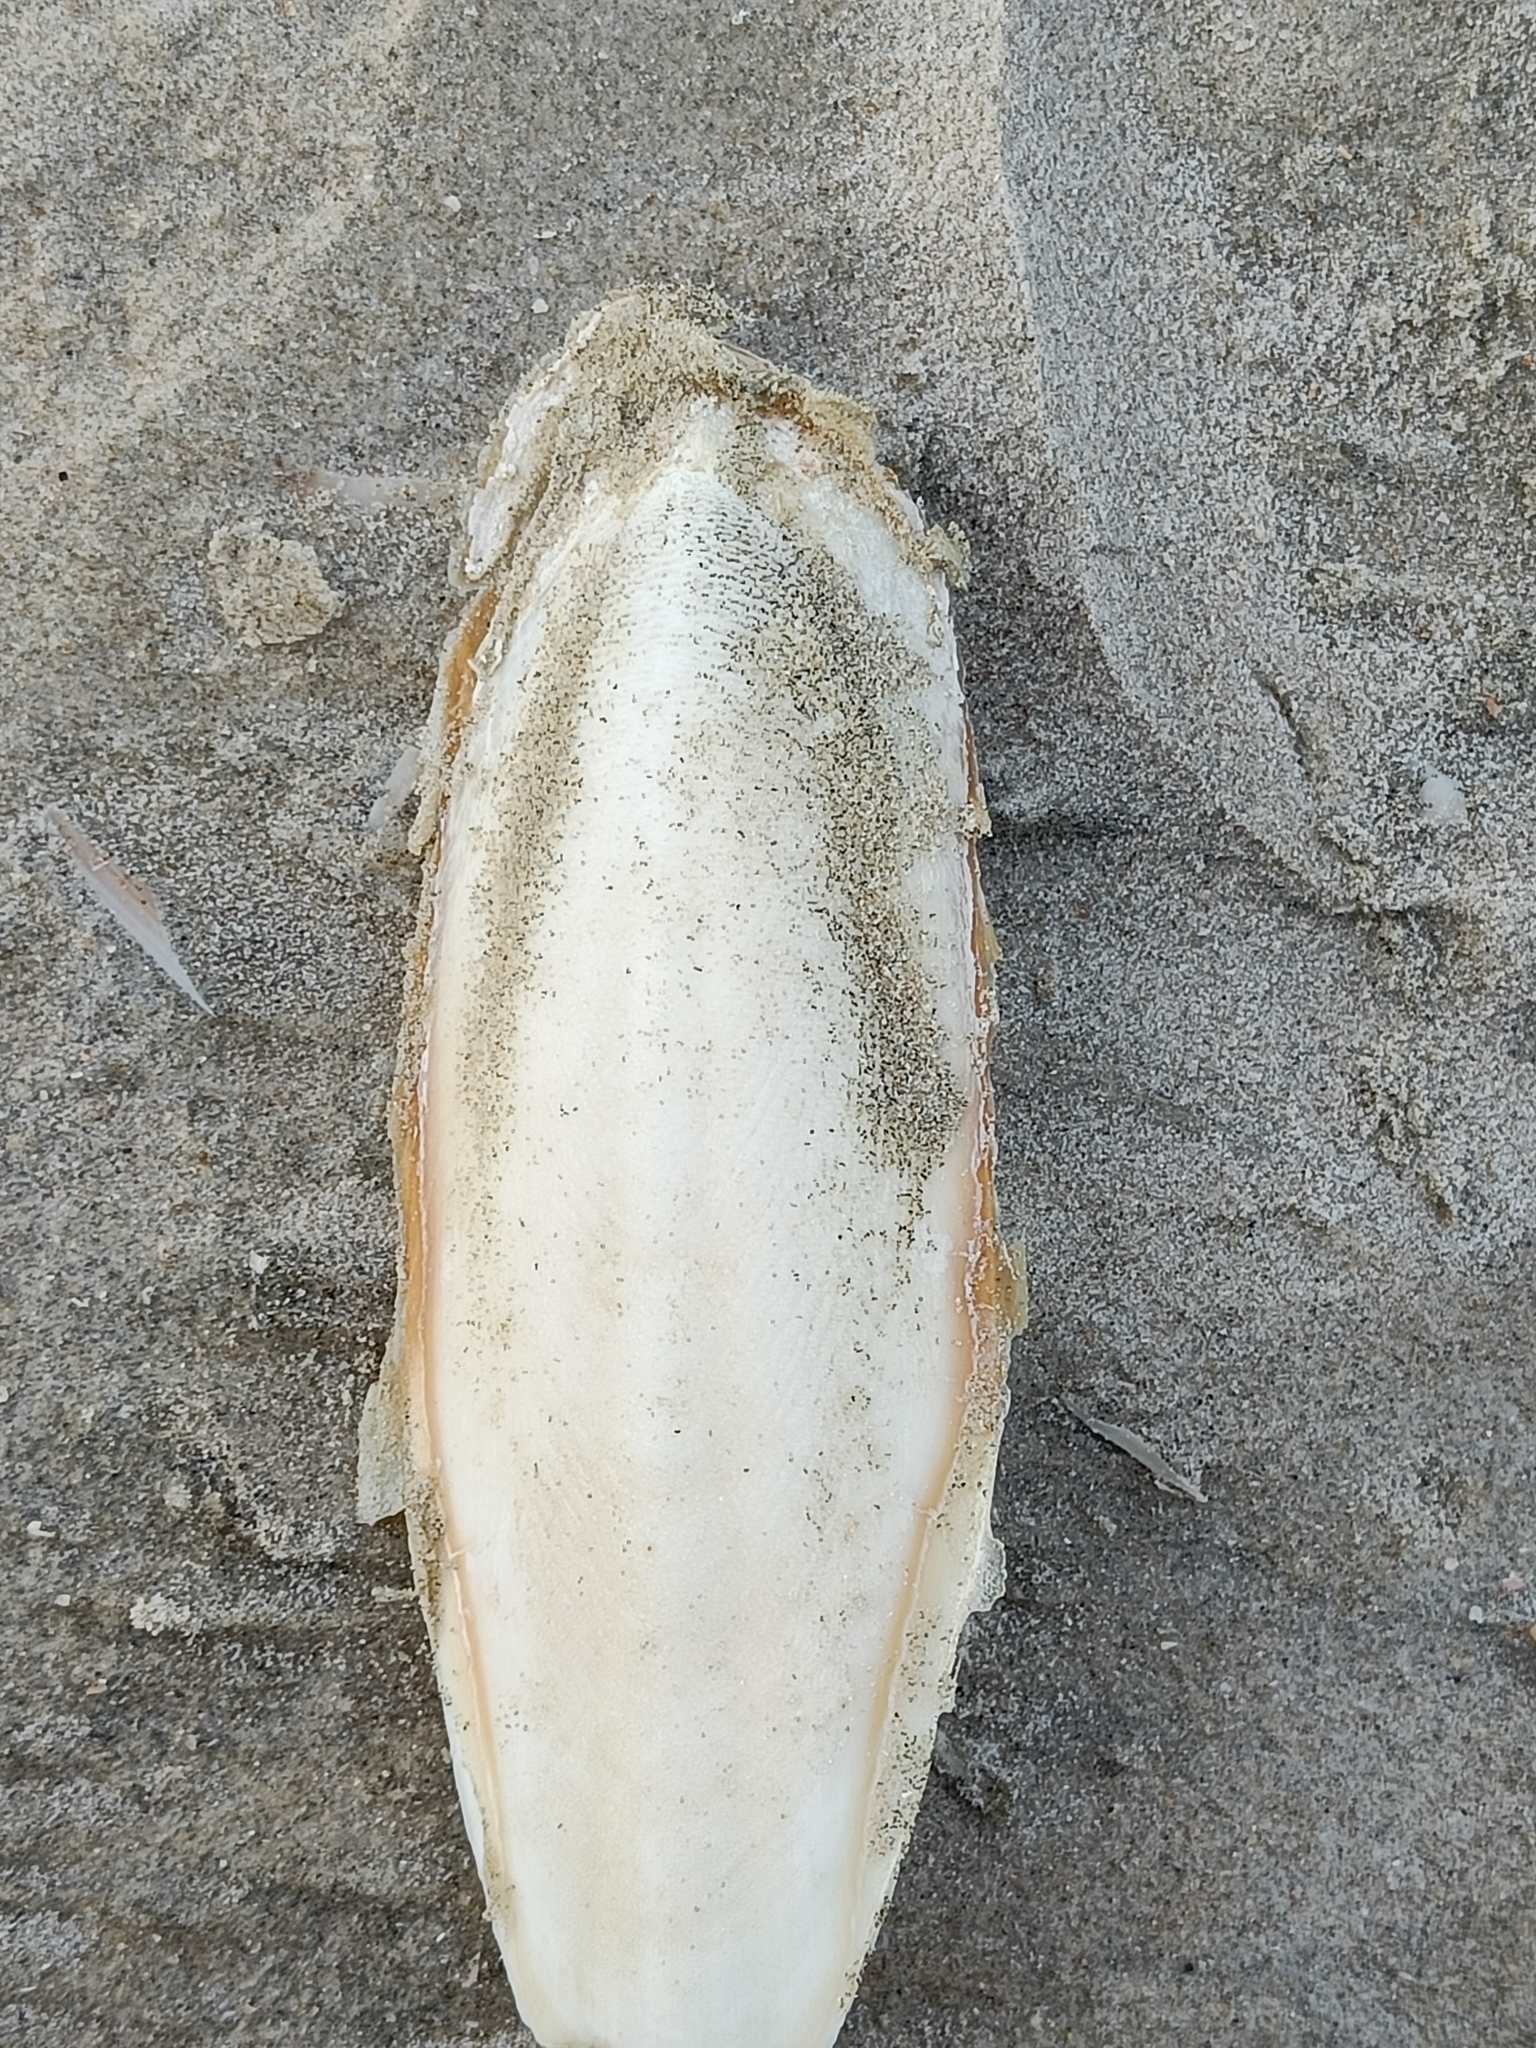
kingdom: Animalia
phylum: Mollusca
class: Cephalopoda
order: Sepiida
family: Sepiidae
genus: Sepia
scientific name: Sepia officinalis
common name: Common cuttlefish
